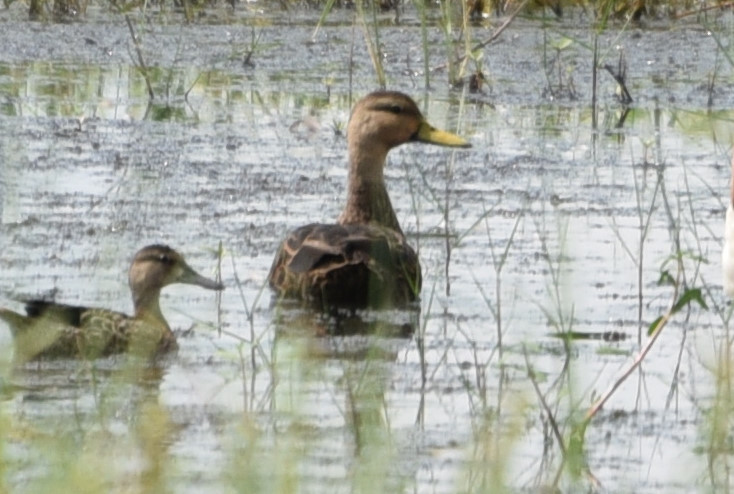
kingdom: Animalia
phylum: Chordata
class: Aves
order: Anseriformes
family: Anatidae
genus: Anas
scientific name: Anas fulvigula
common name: Mottled duck
